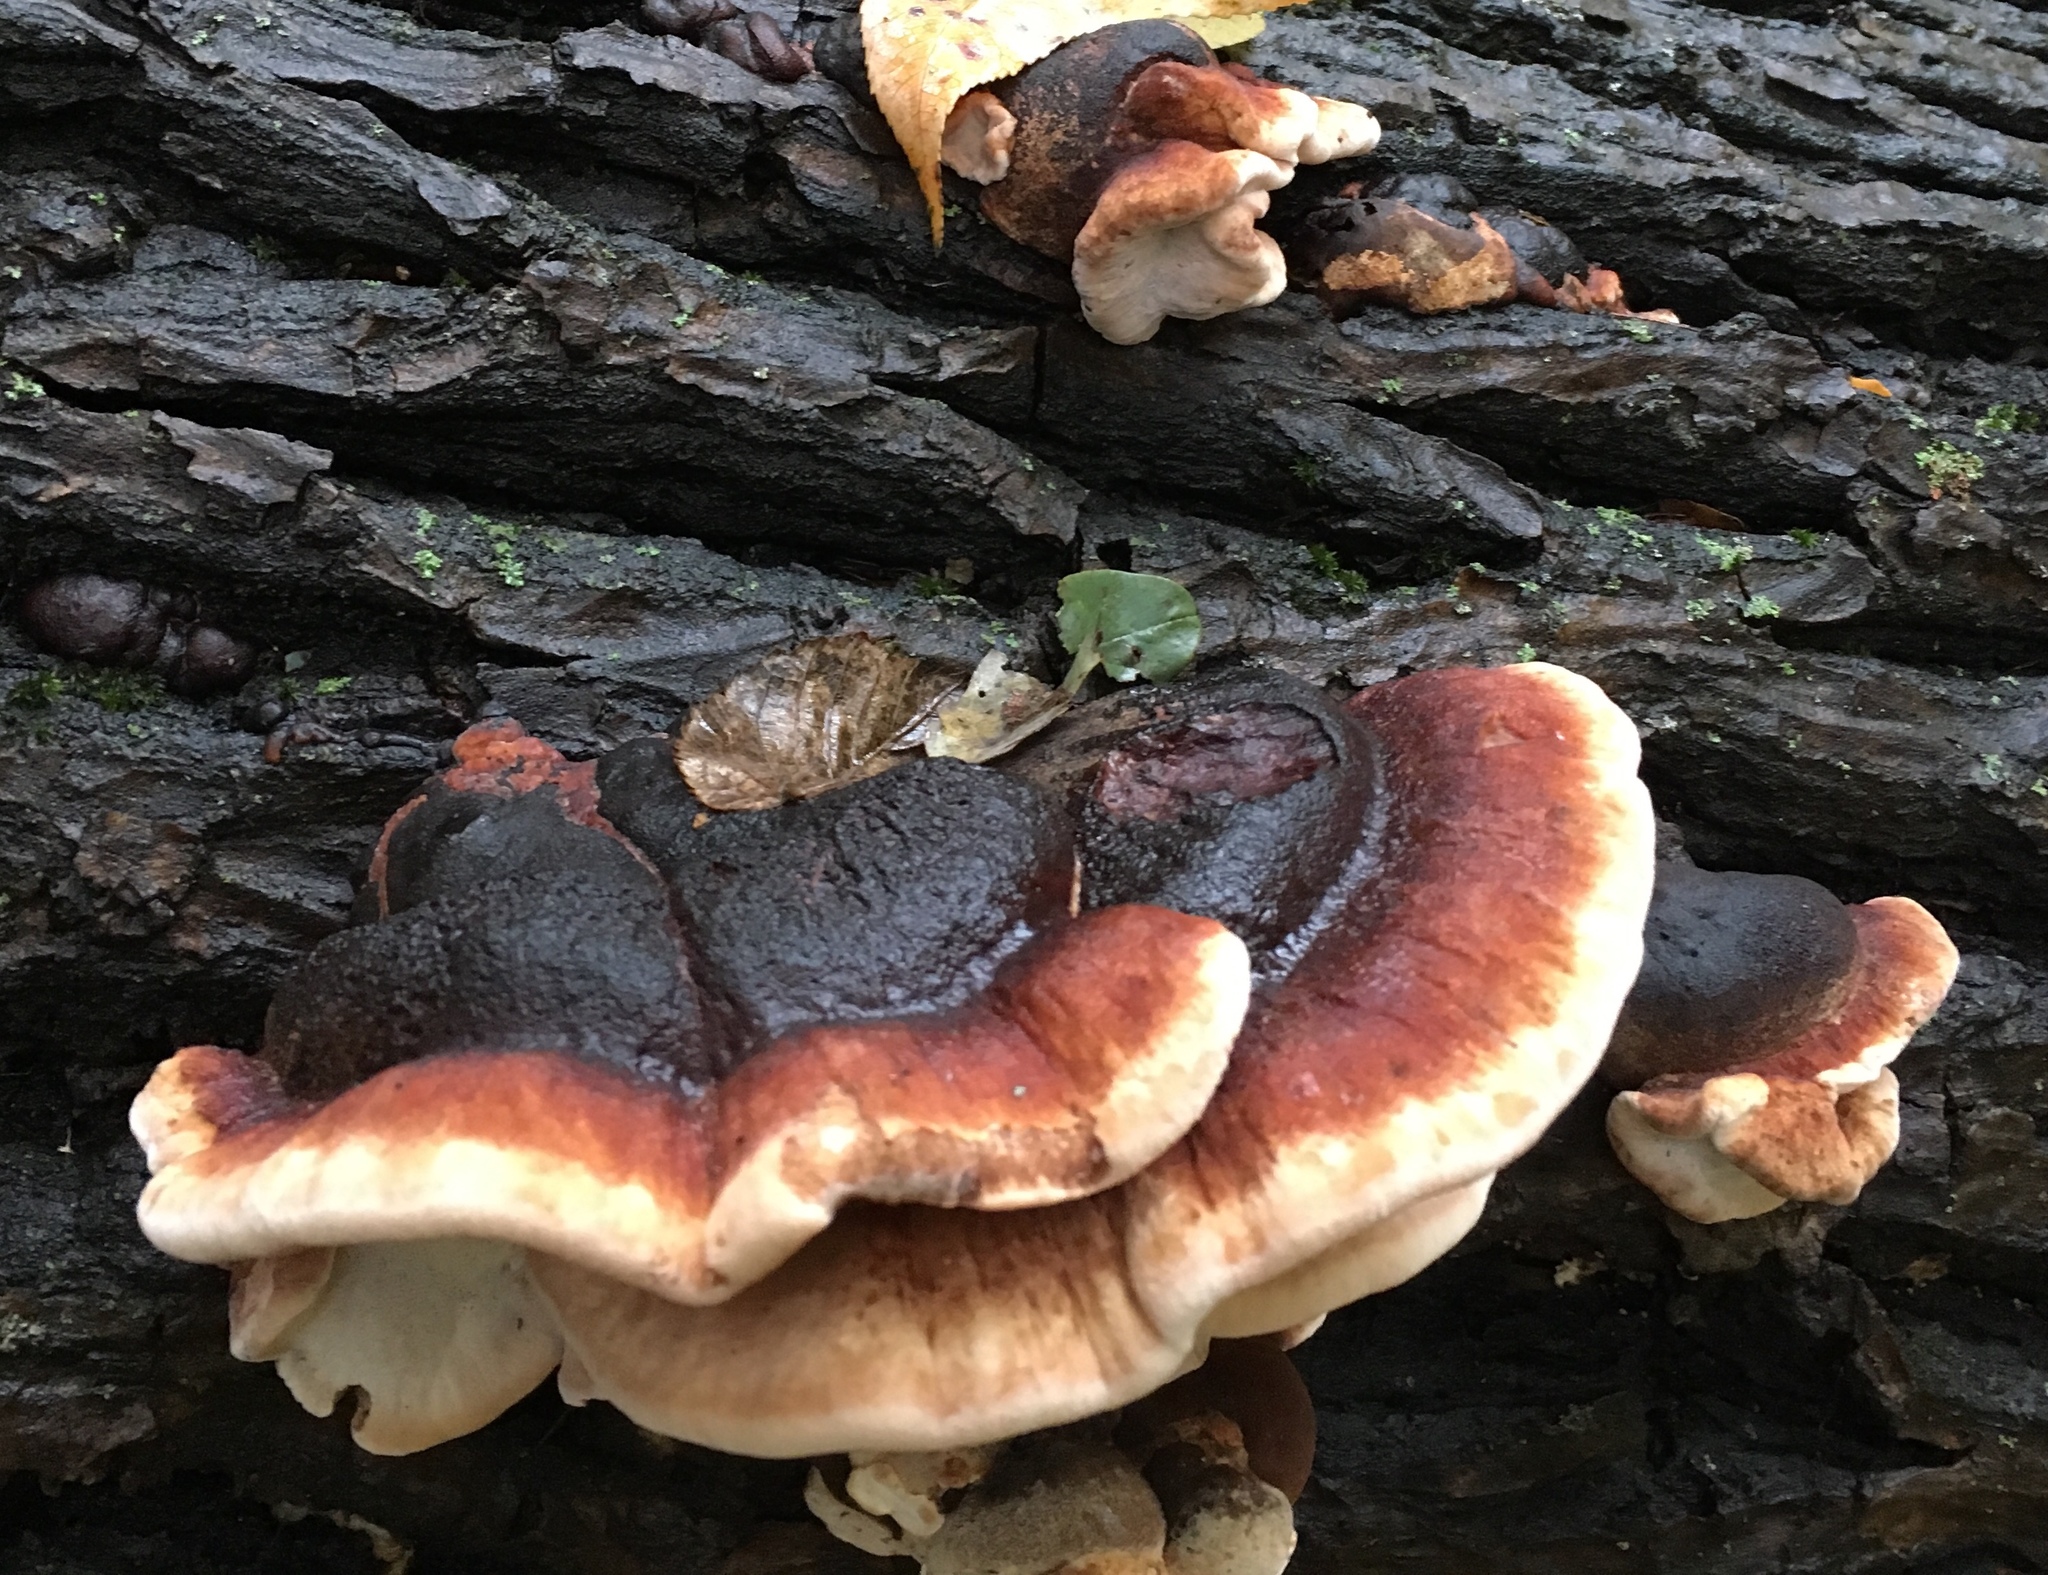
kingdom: Fungi
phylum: Basidiomycota
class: Agaricomycetes
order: Polyporales
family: Ischnodermataceae
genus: Ischnoderma
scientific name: Ischnoderma resinosum
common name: Resinous polypore
